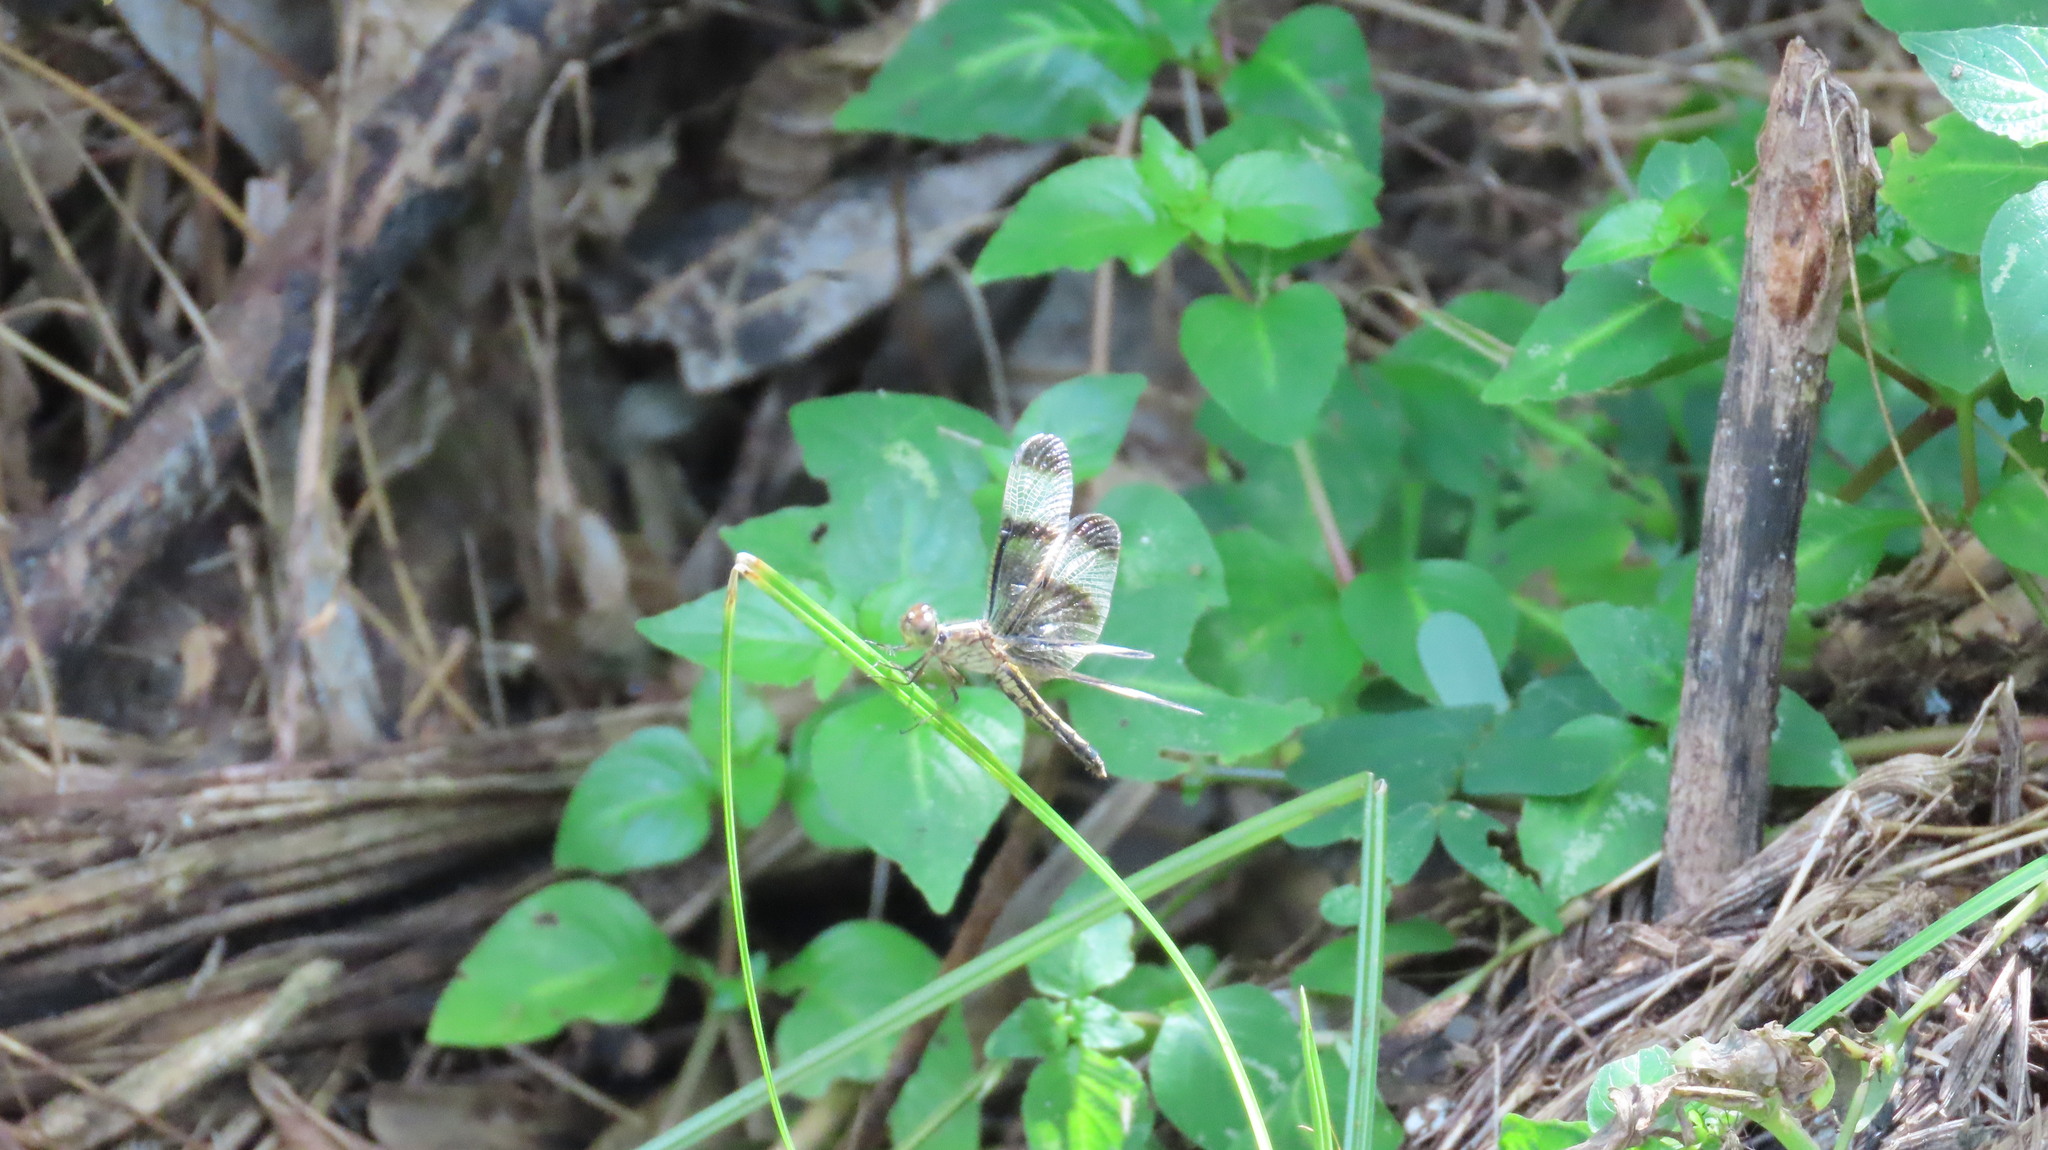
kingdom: Animalia
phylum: Arthropoda
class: Insecta
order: Odonata
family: Libellulidae
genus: Neurothemis
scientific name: Neurothemis tullia
